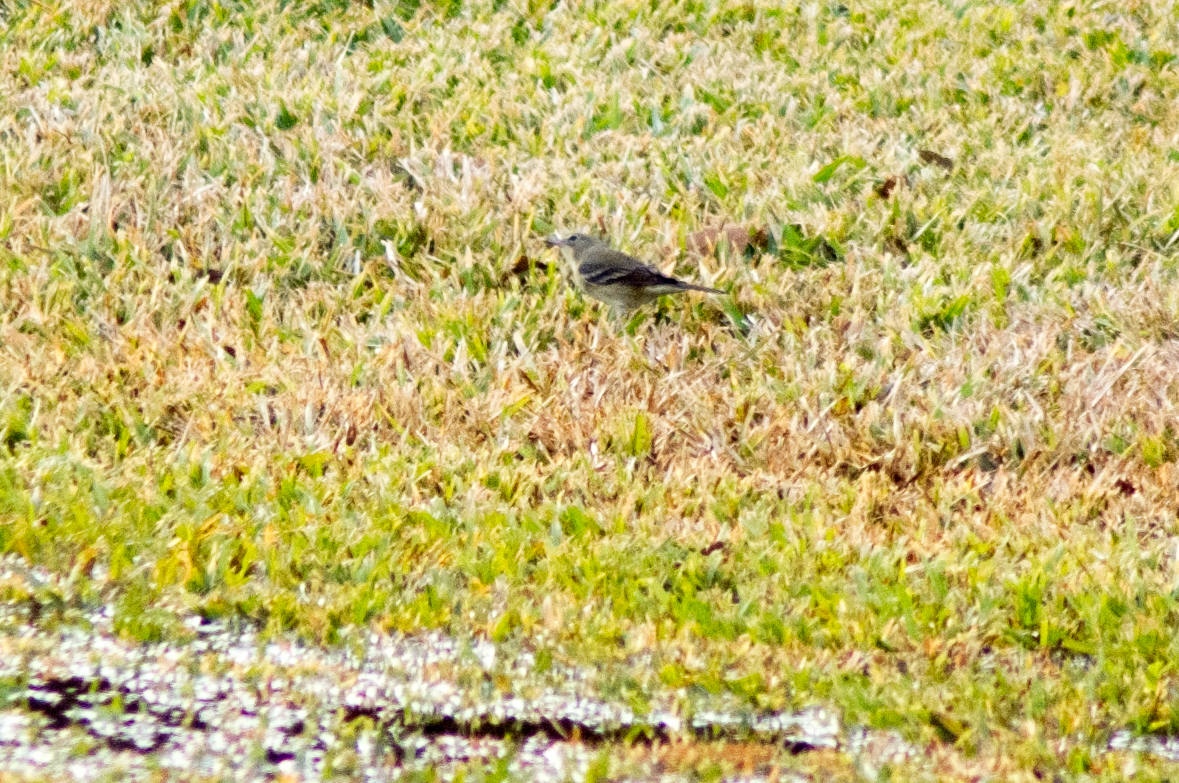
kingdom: Animalia
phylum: Chordata
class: Aves
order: Passeriformes
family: Parulidae
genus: Setophaga
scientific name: Setophaga pinus
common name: Pine warbler
